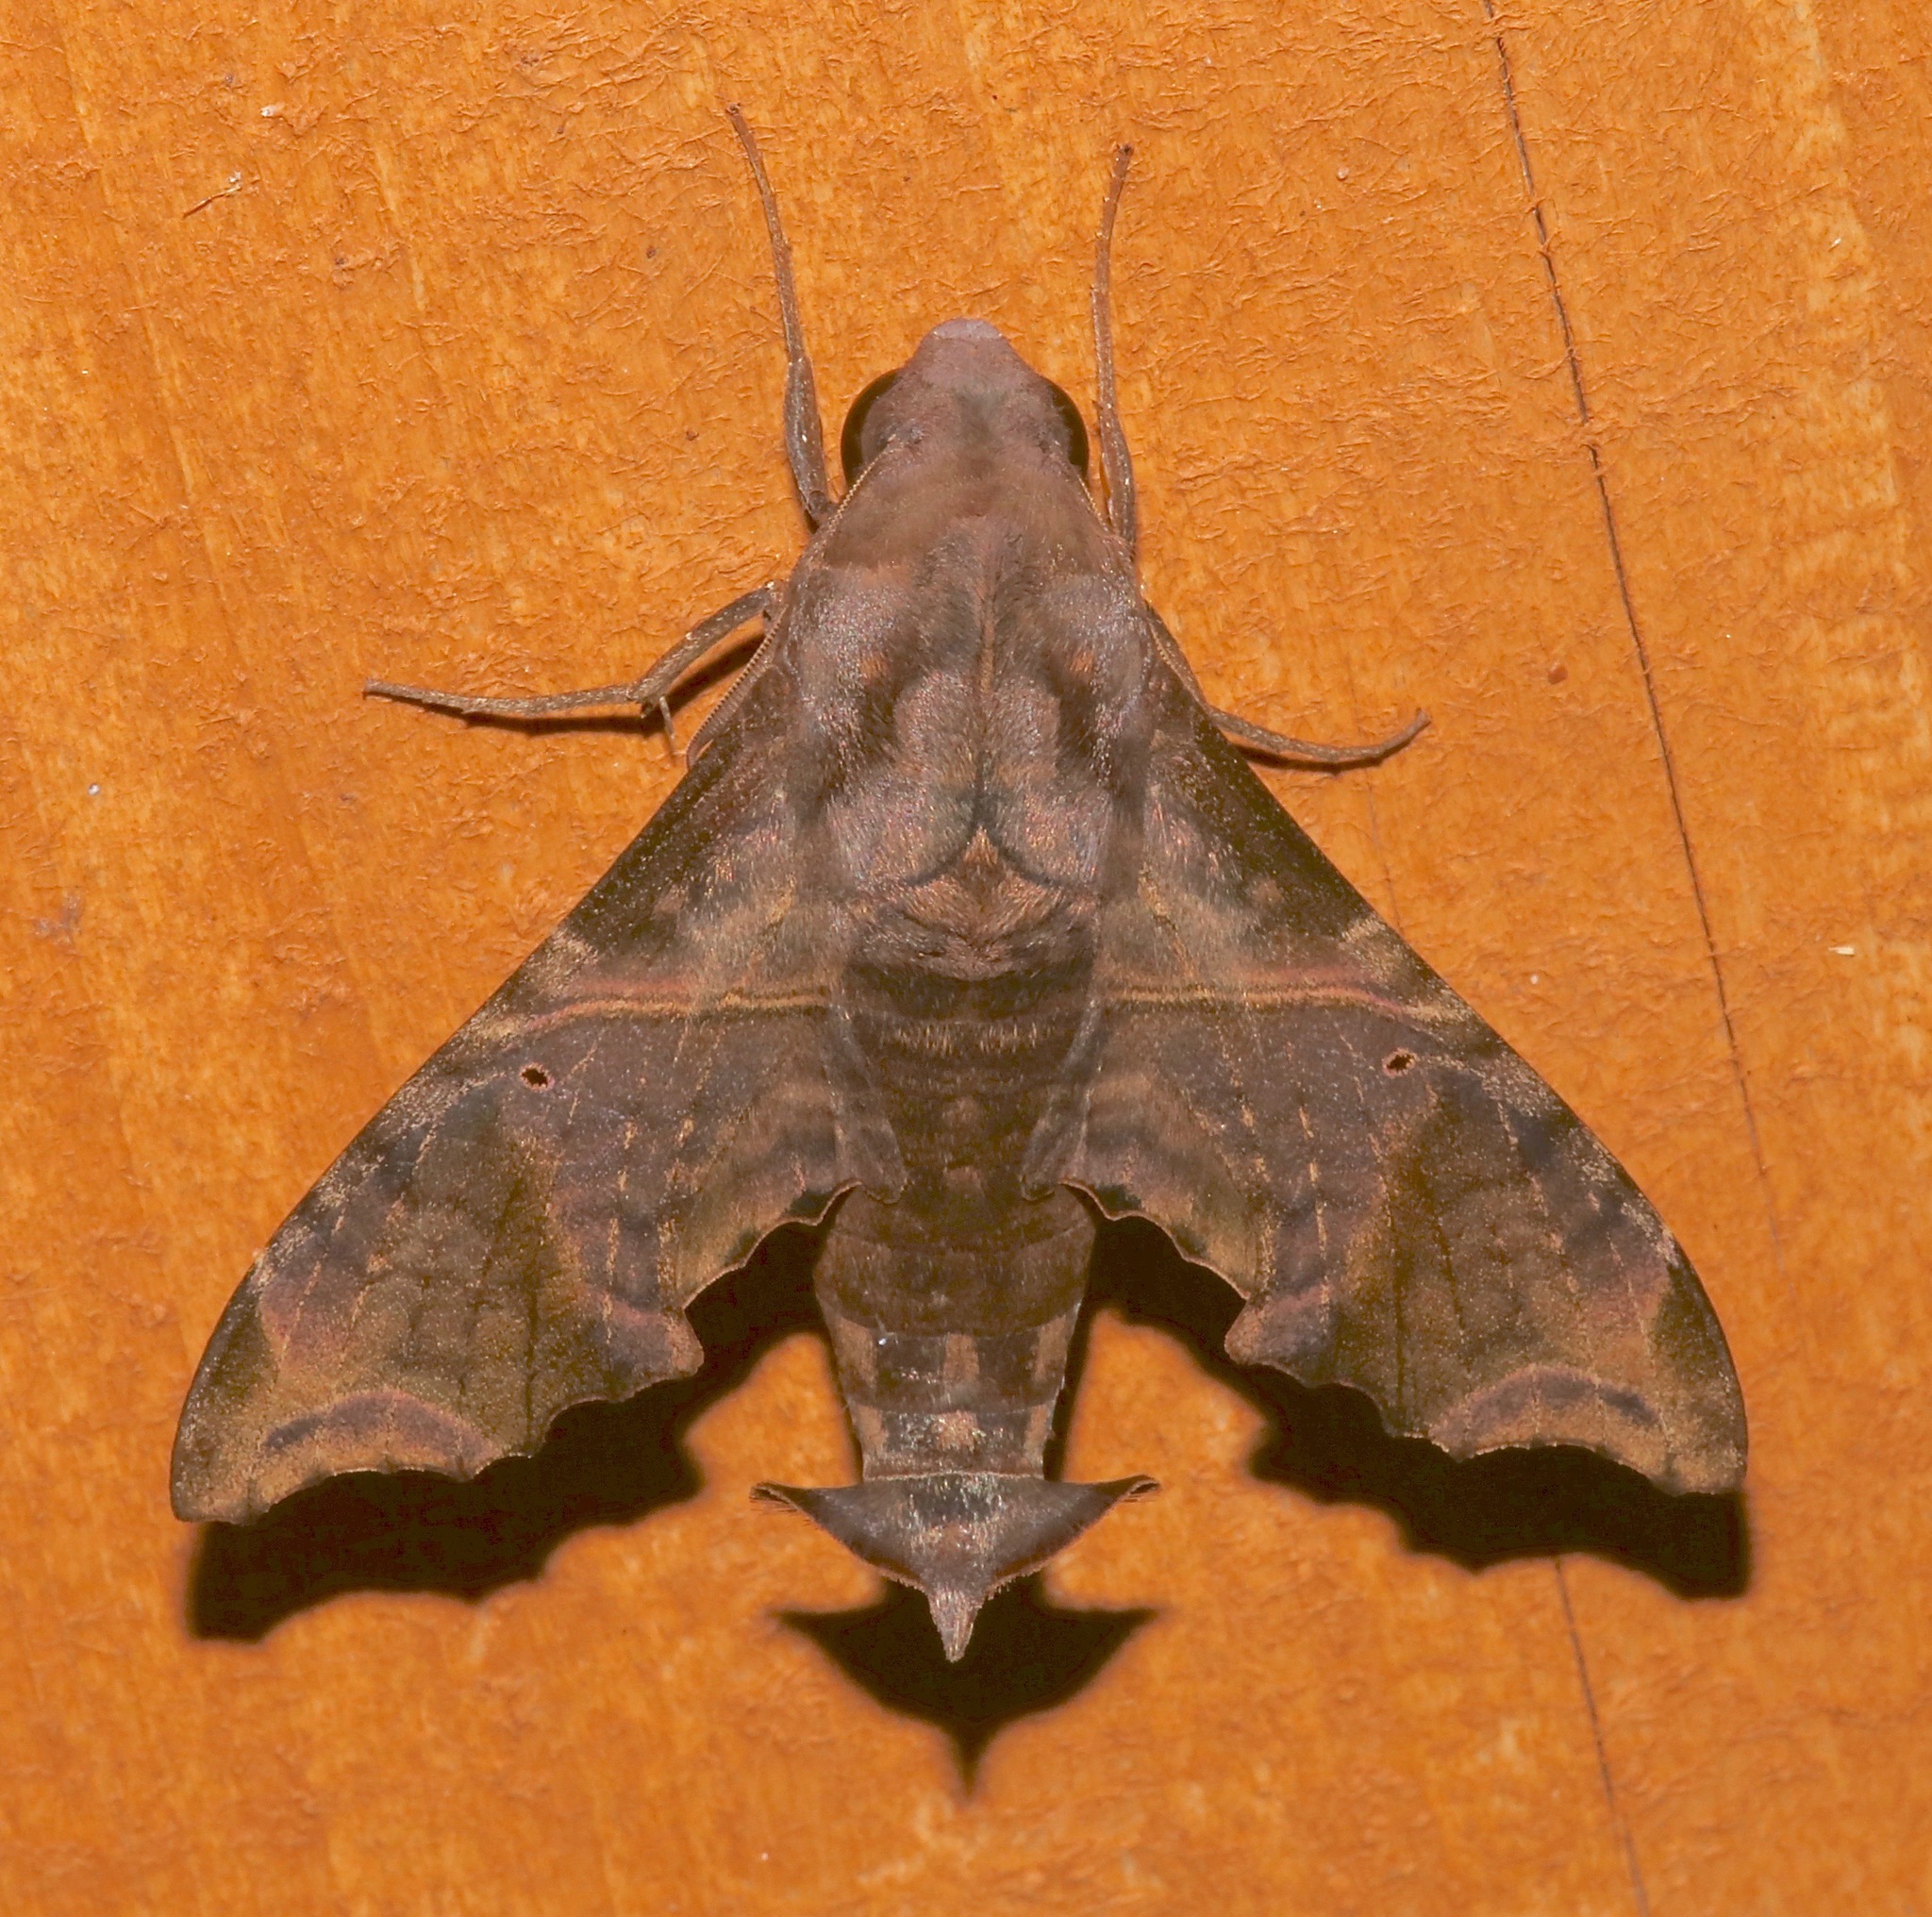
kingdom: Animalia
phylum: Arthropoda
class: Insecta
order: Lepidoptera
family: Sphingidae
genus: Enyo
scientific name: Enyo lugubris
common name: Mournful sphinx
